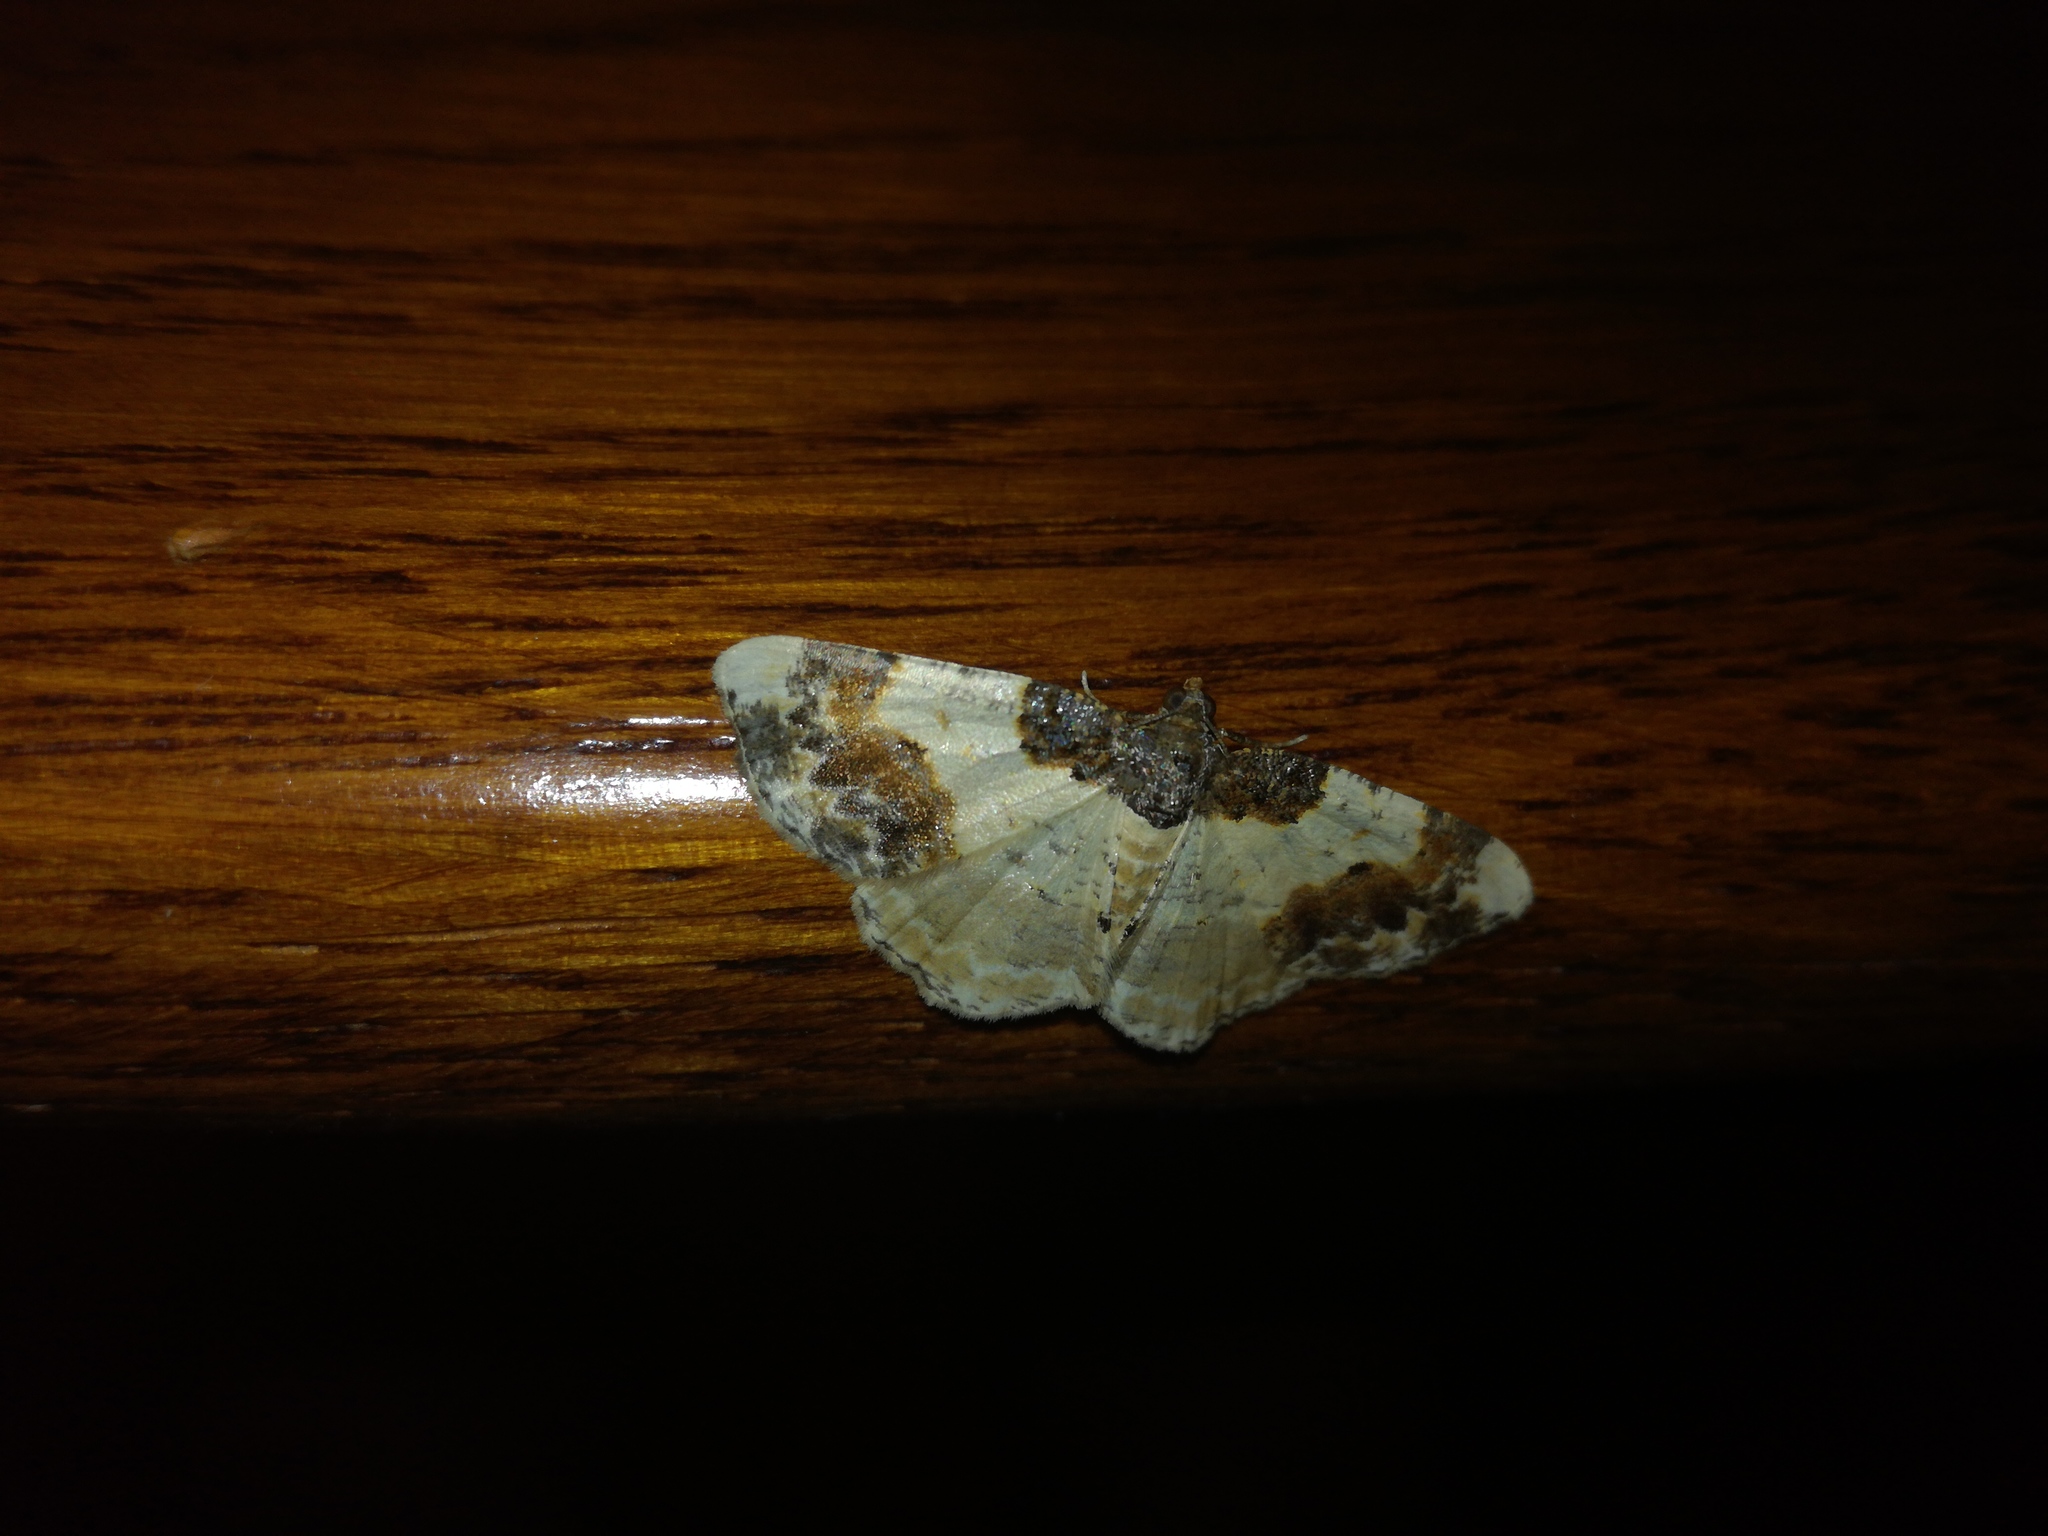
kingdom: Animalia
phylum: Arthropoda
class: Insecta
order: Lepidoptera
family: Geometridae
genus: Ligdia
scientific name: Ligdia adustata
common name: Scorched carpet
